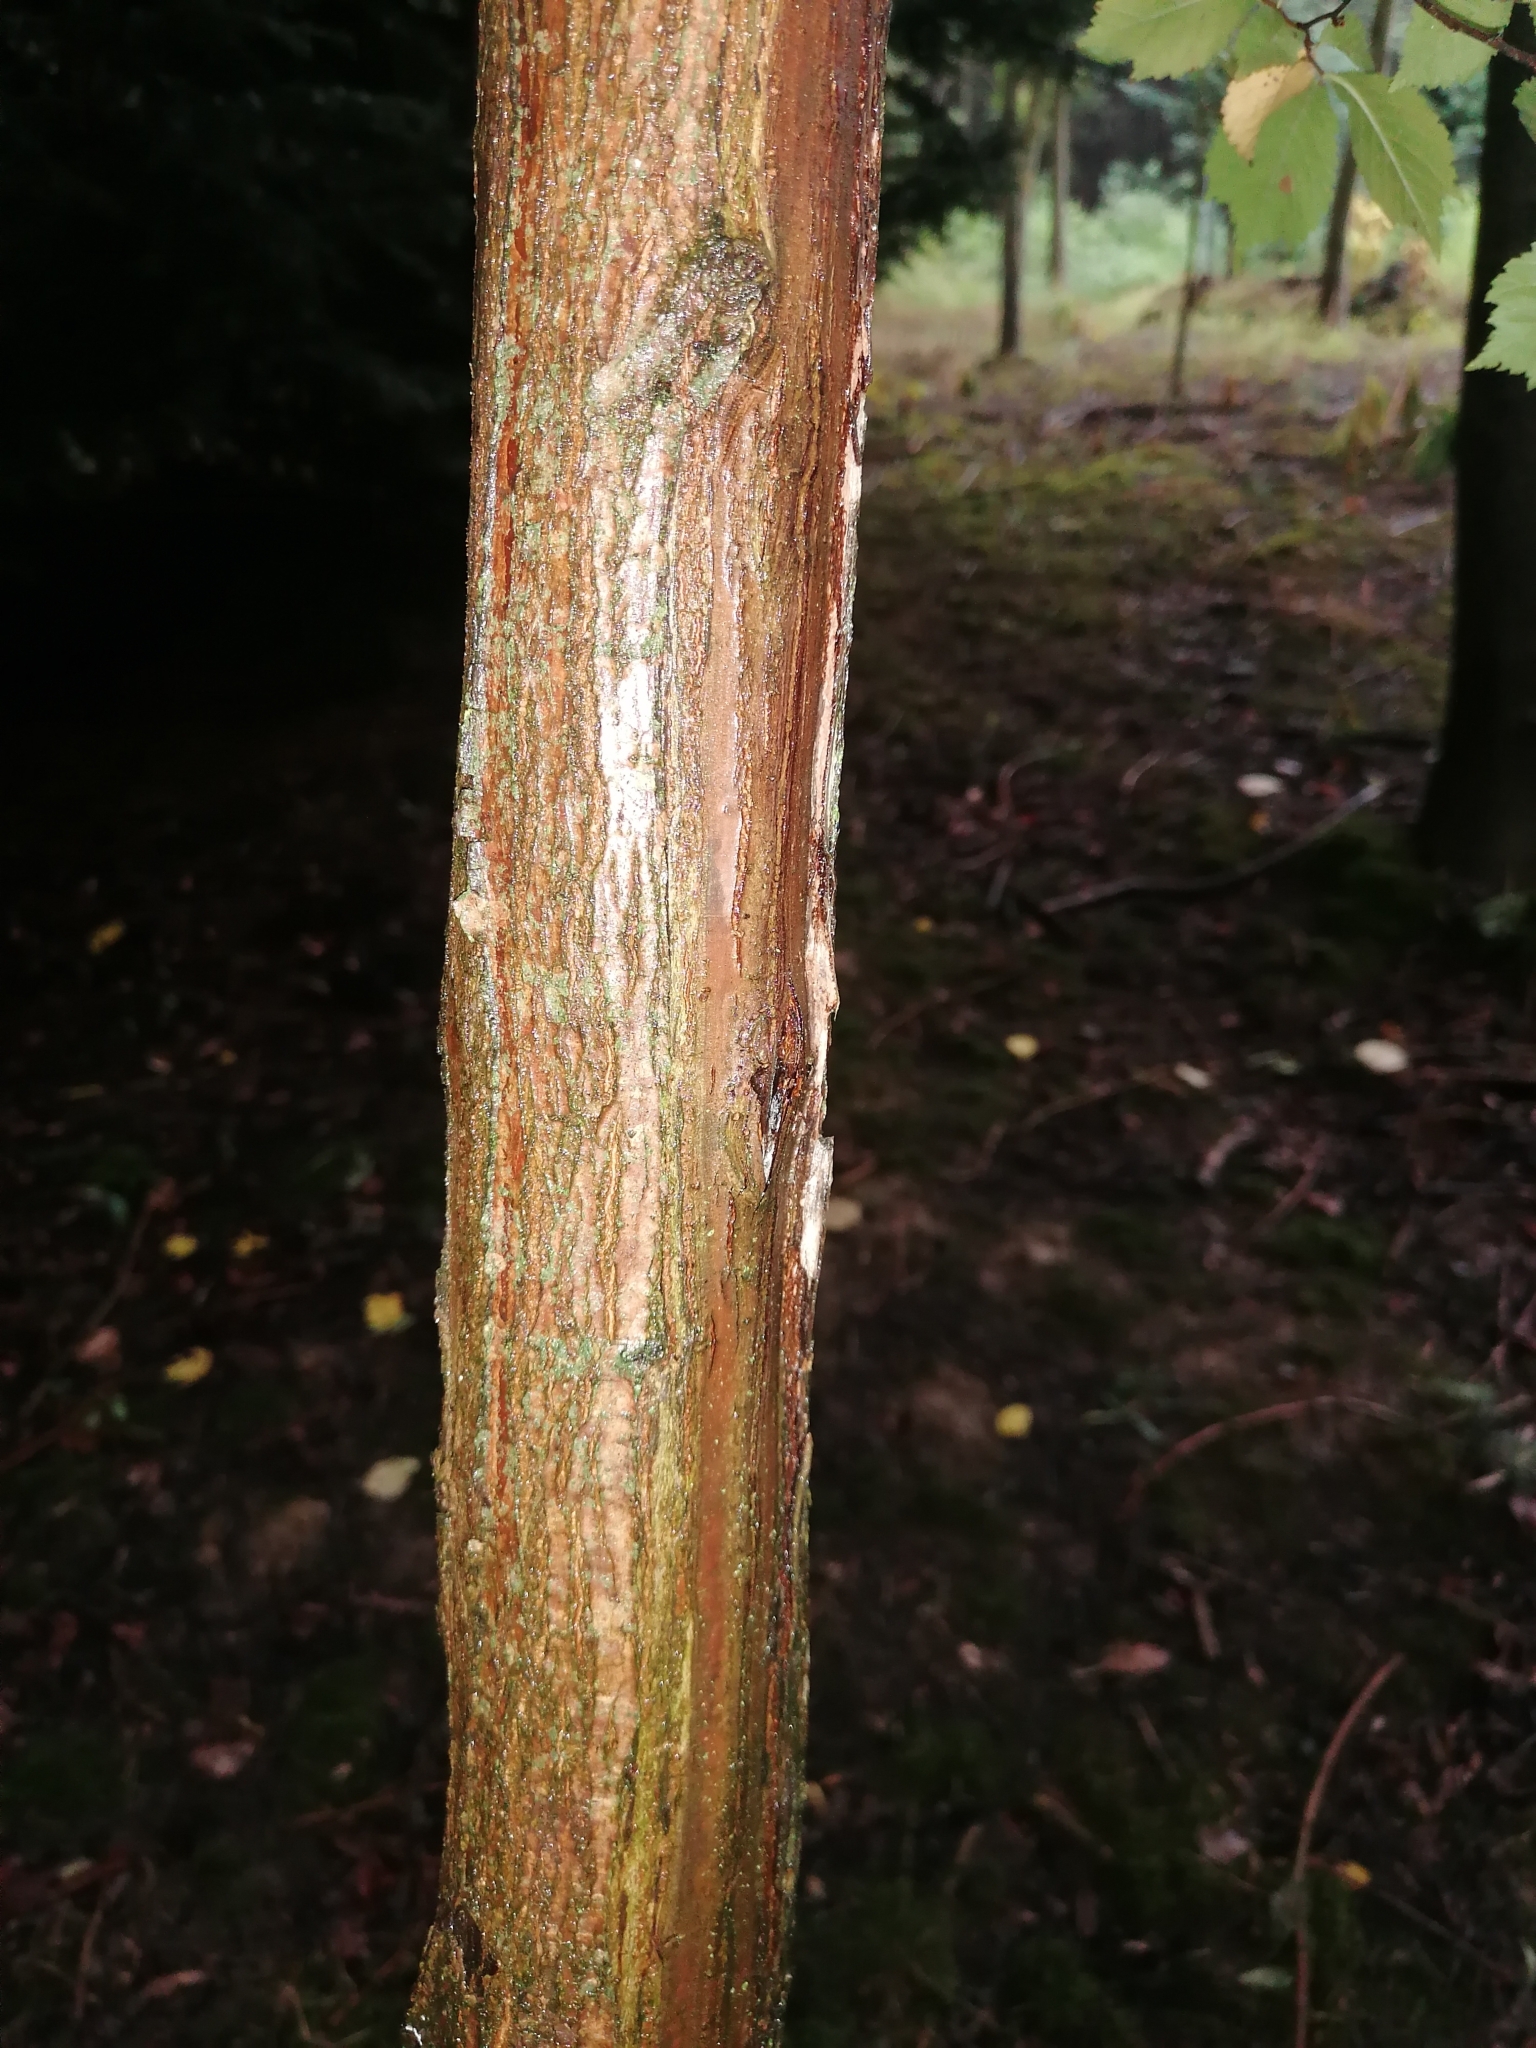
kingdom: Plantae
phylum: Tracheophyta
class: Magnoliopsida
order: Rosales
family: Ulmaceae
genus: Ulmus
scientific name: Ulmus glabra
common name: Wych elm
